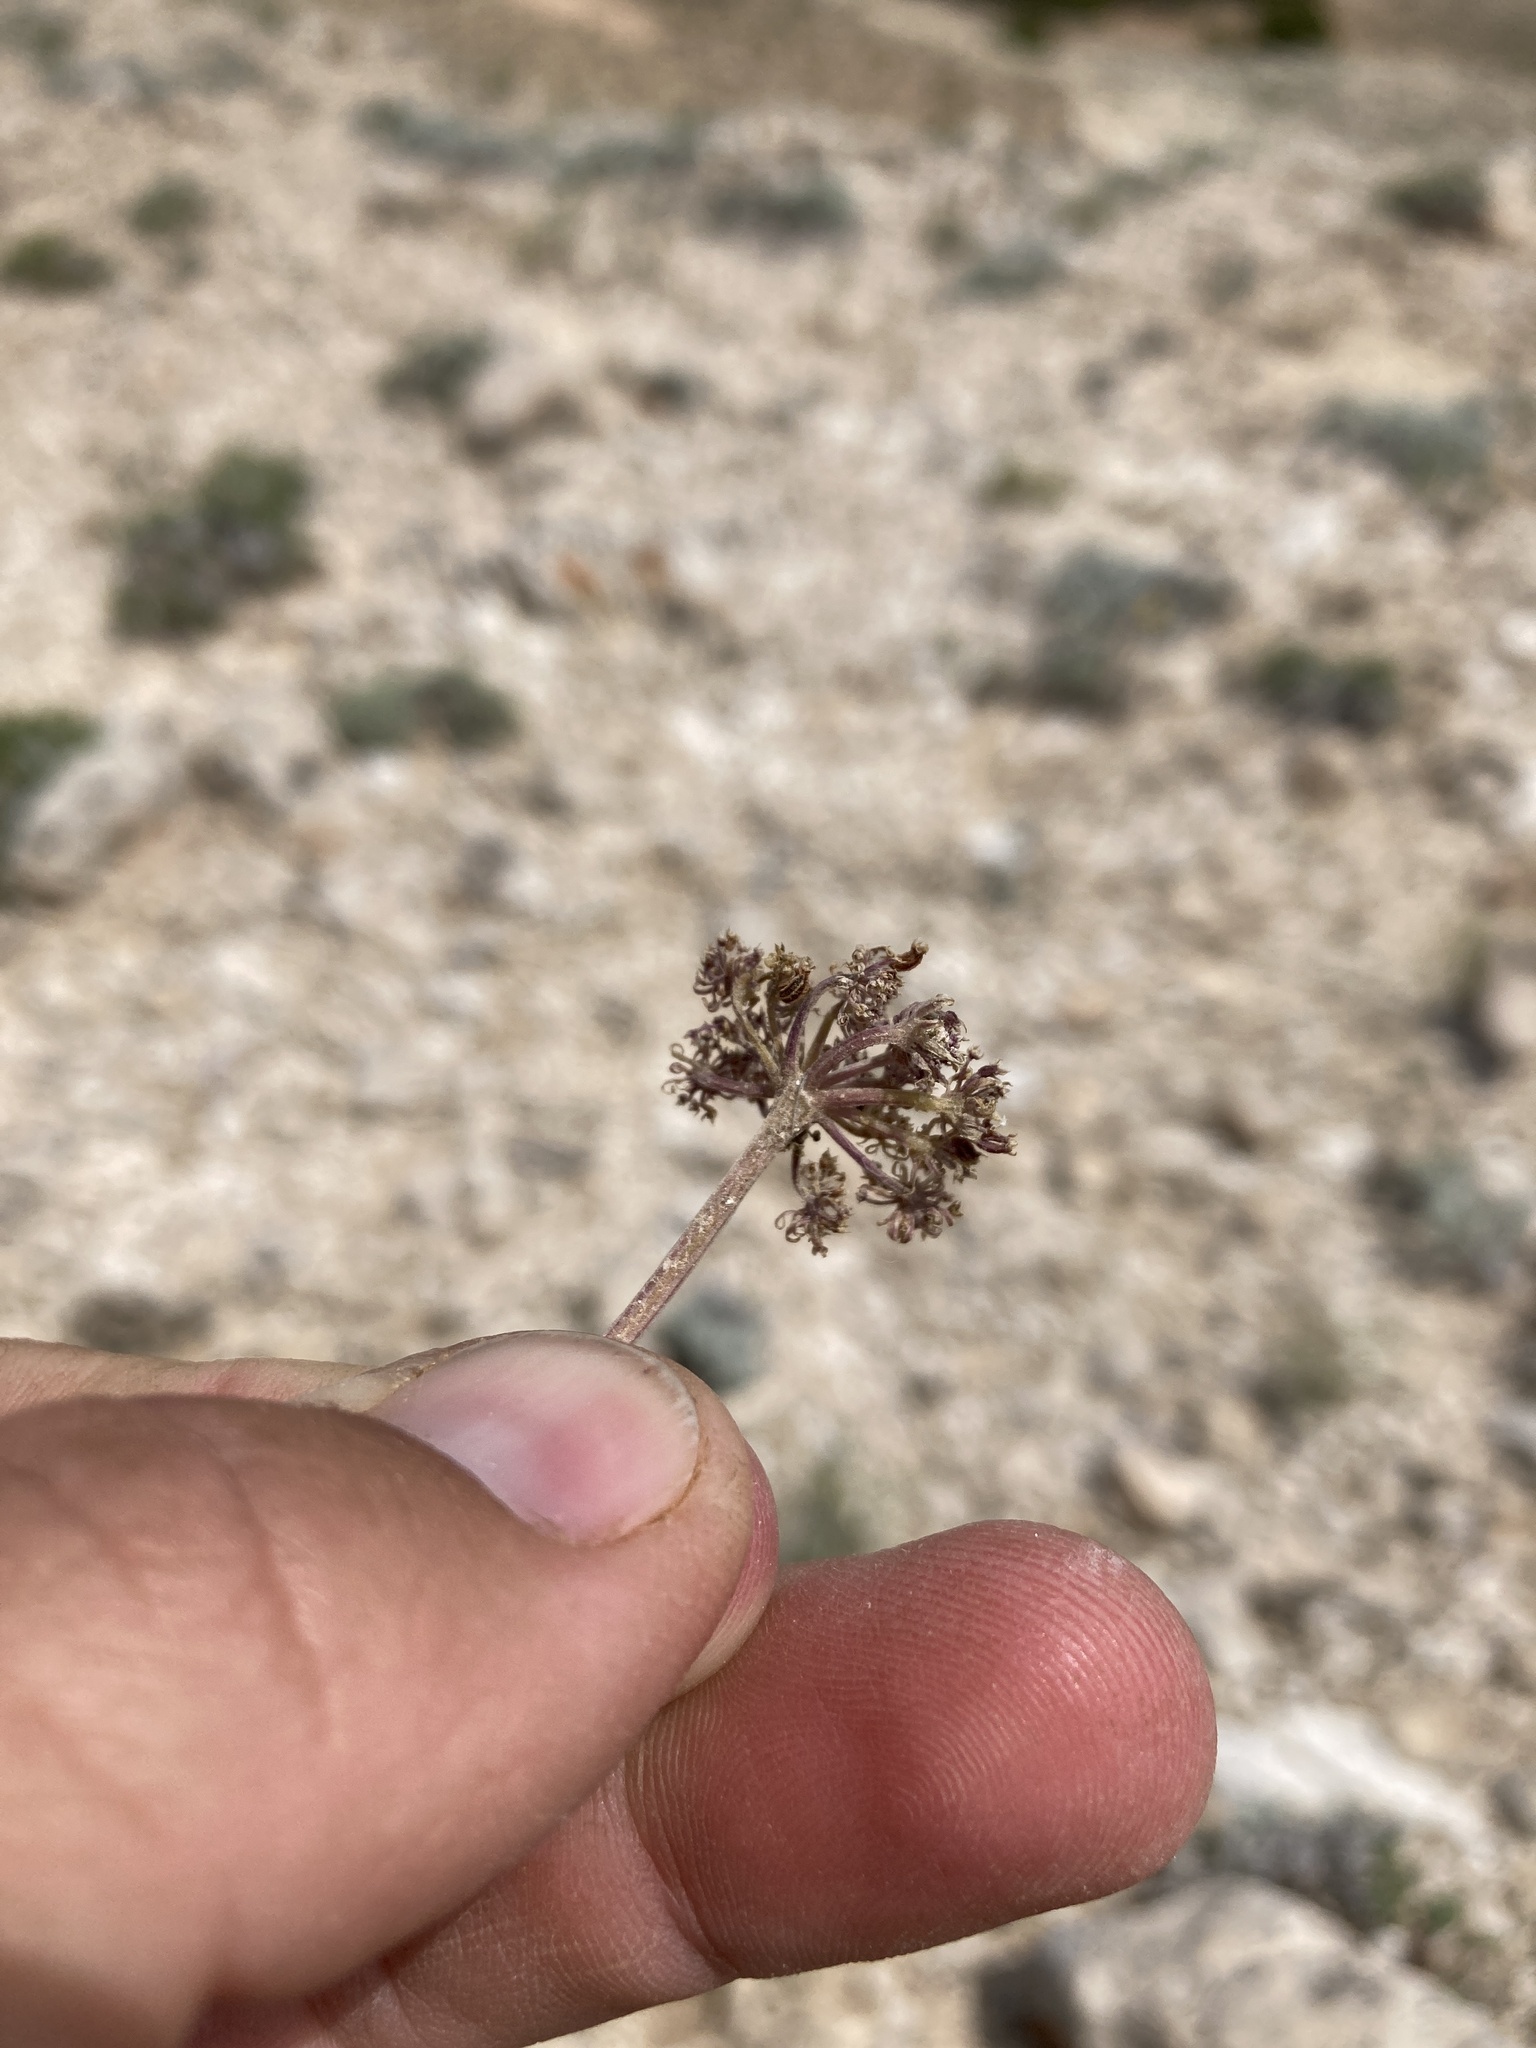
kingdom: Plantae
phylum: Tracheophyta
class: Magnoliopsida
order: Apiales
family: Apiaceae
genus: Musineon
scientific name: Musineon divaricatum
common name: Plains musineon
